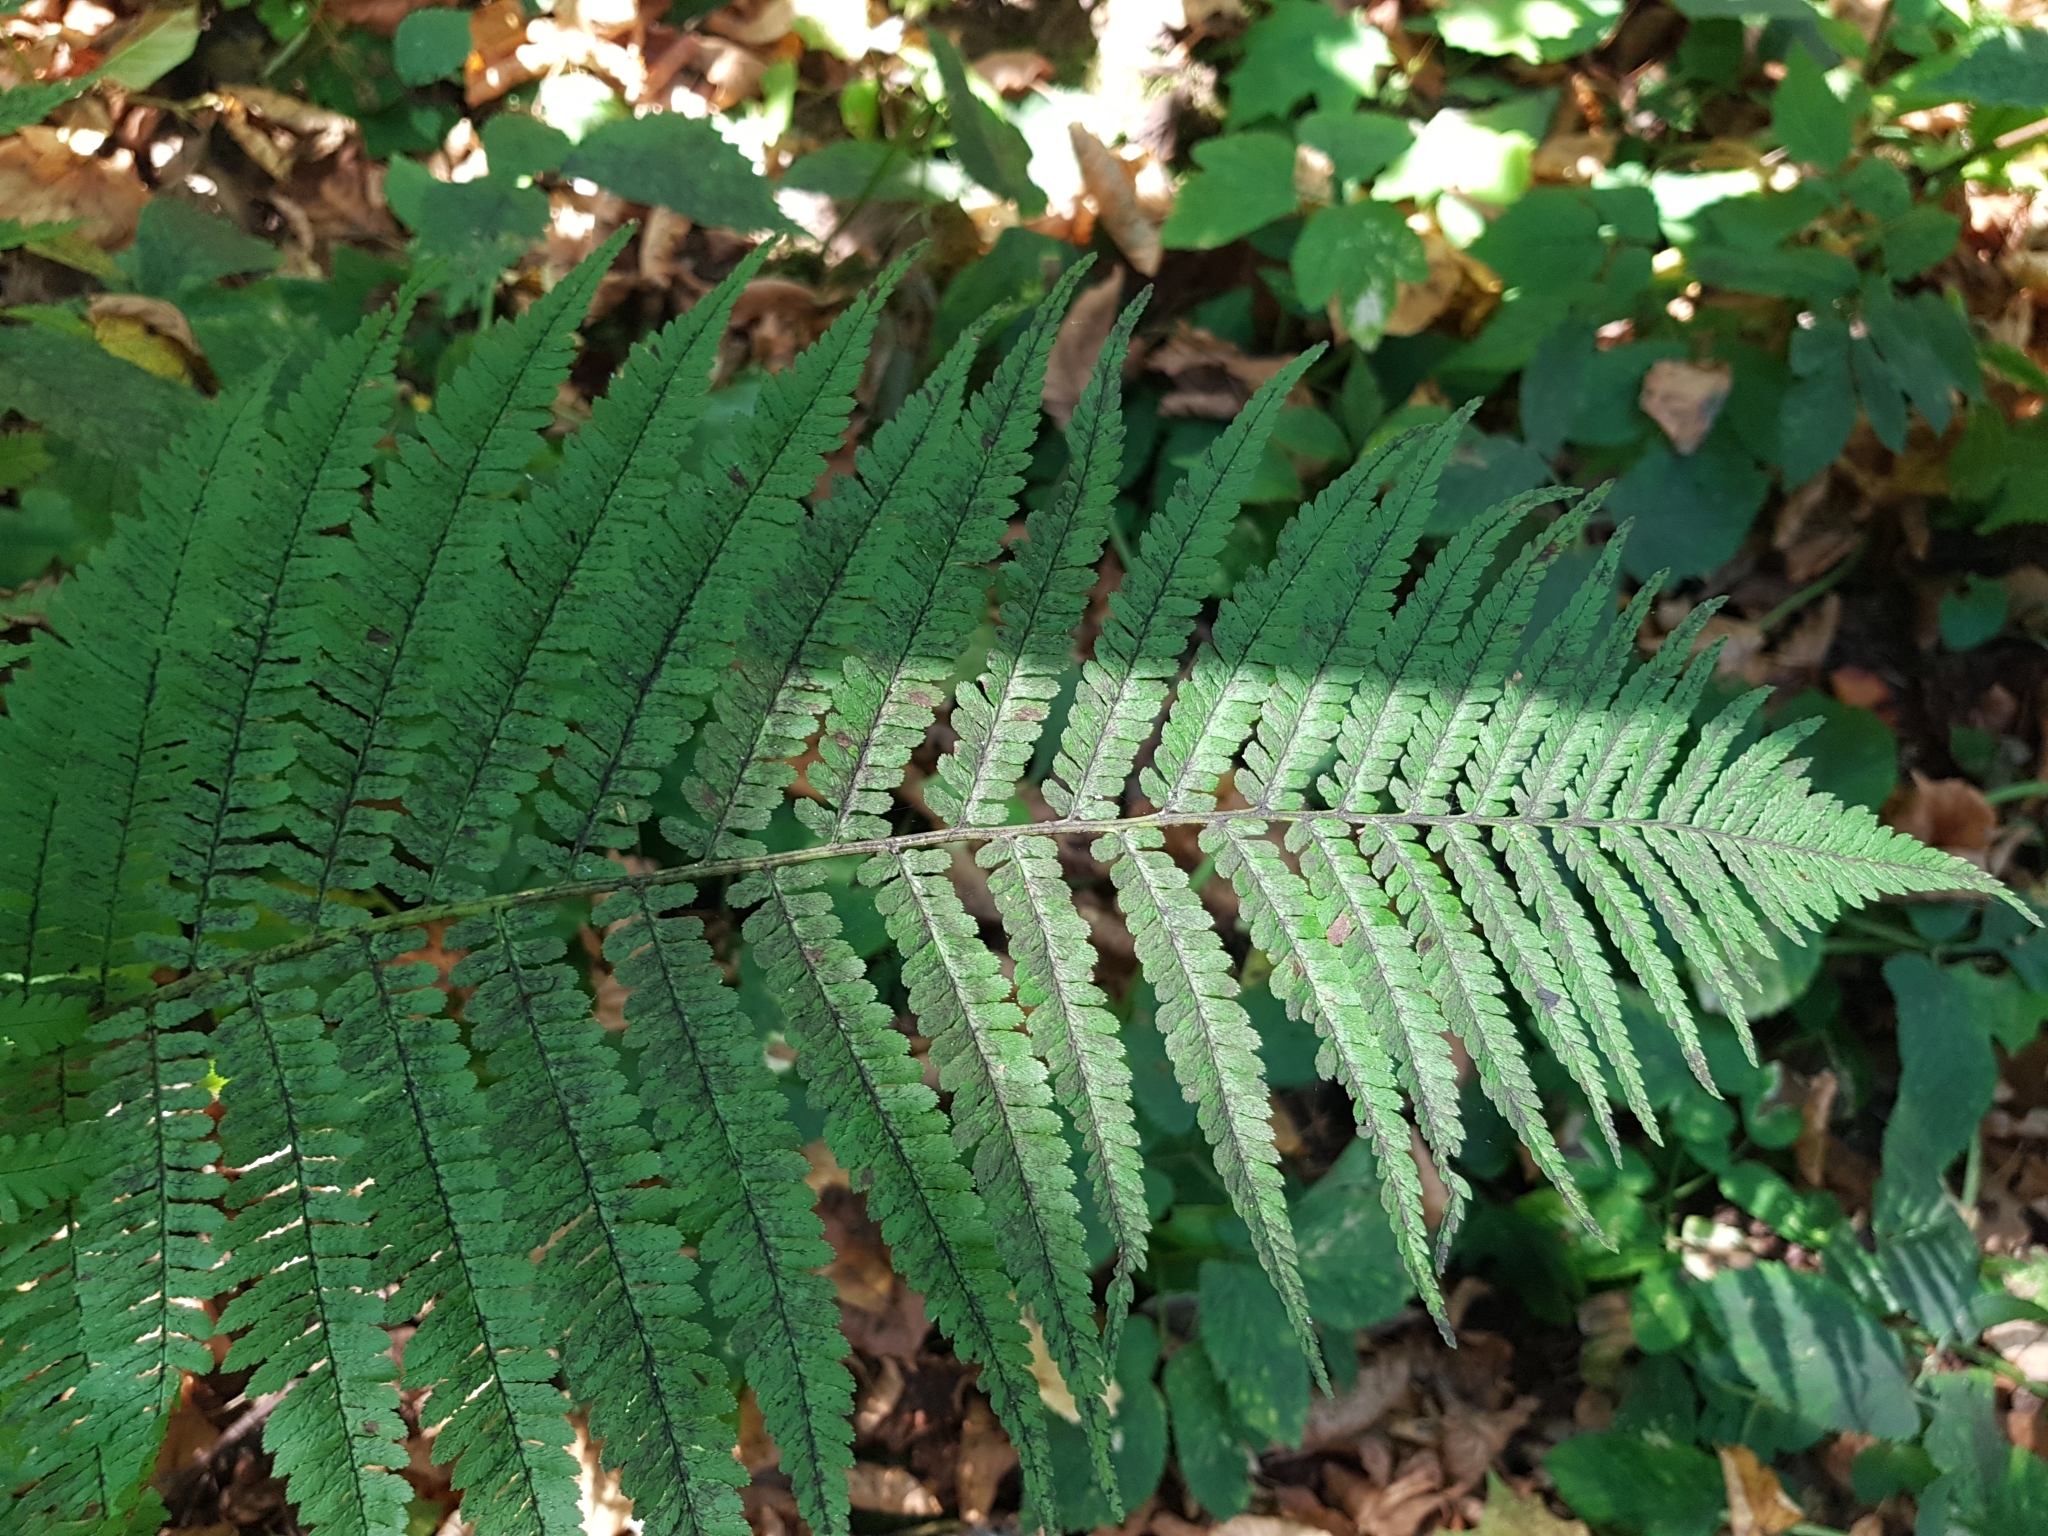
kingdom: Plantae
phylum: Tracheophyta
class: Polypodiopsida
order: Polypodiales
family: Dryopteridaceae
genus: Dryopteris
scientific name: Dryopteris filix-mas
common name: Male fern
